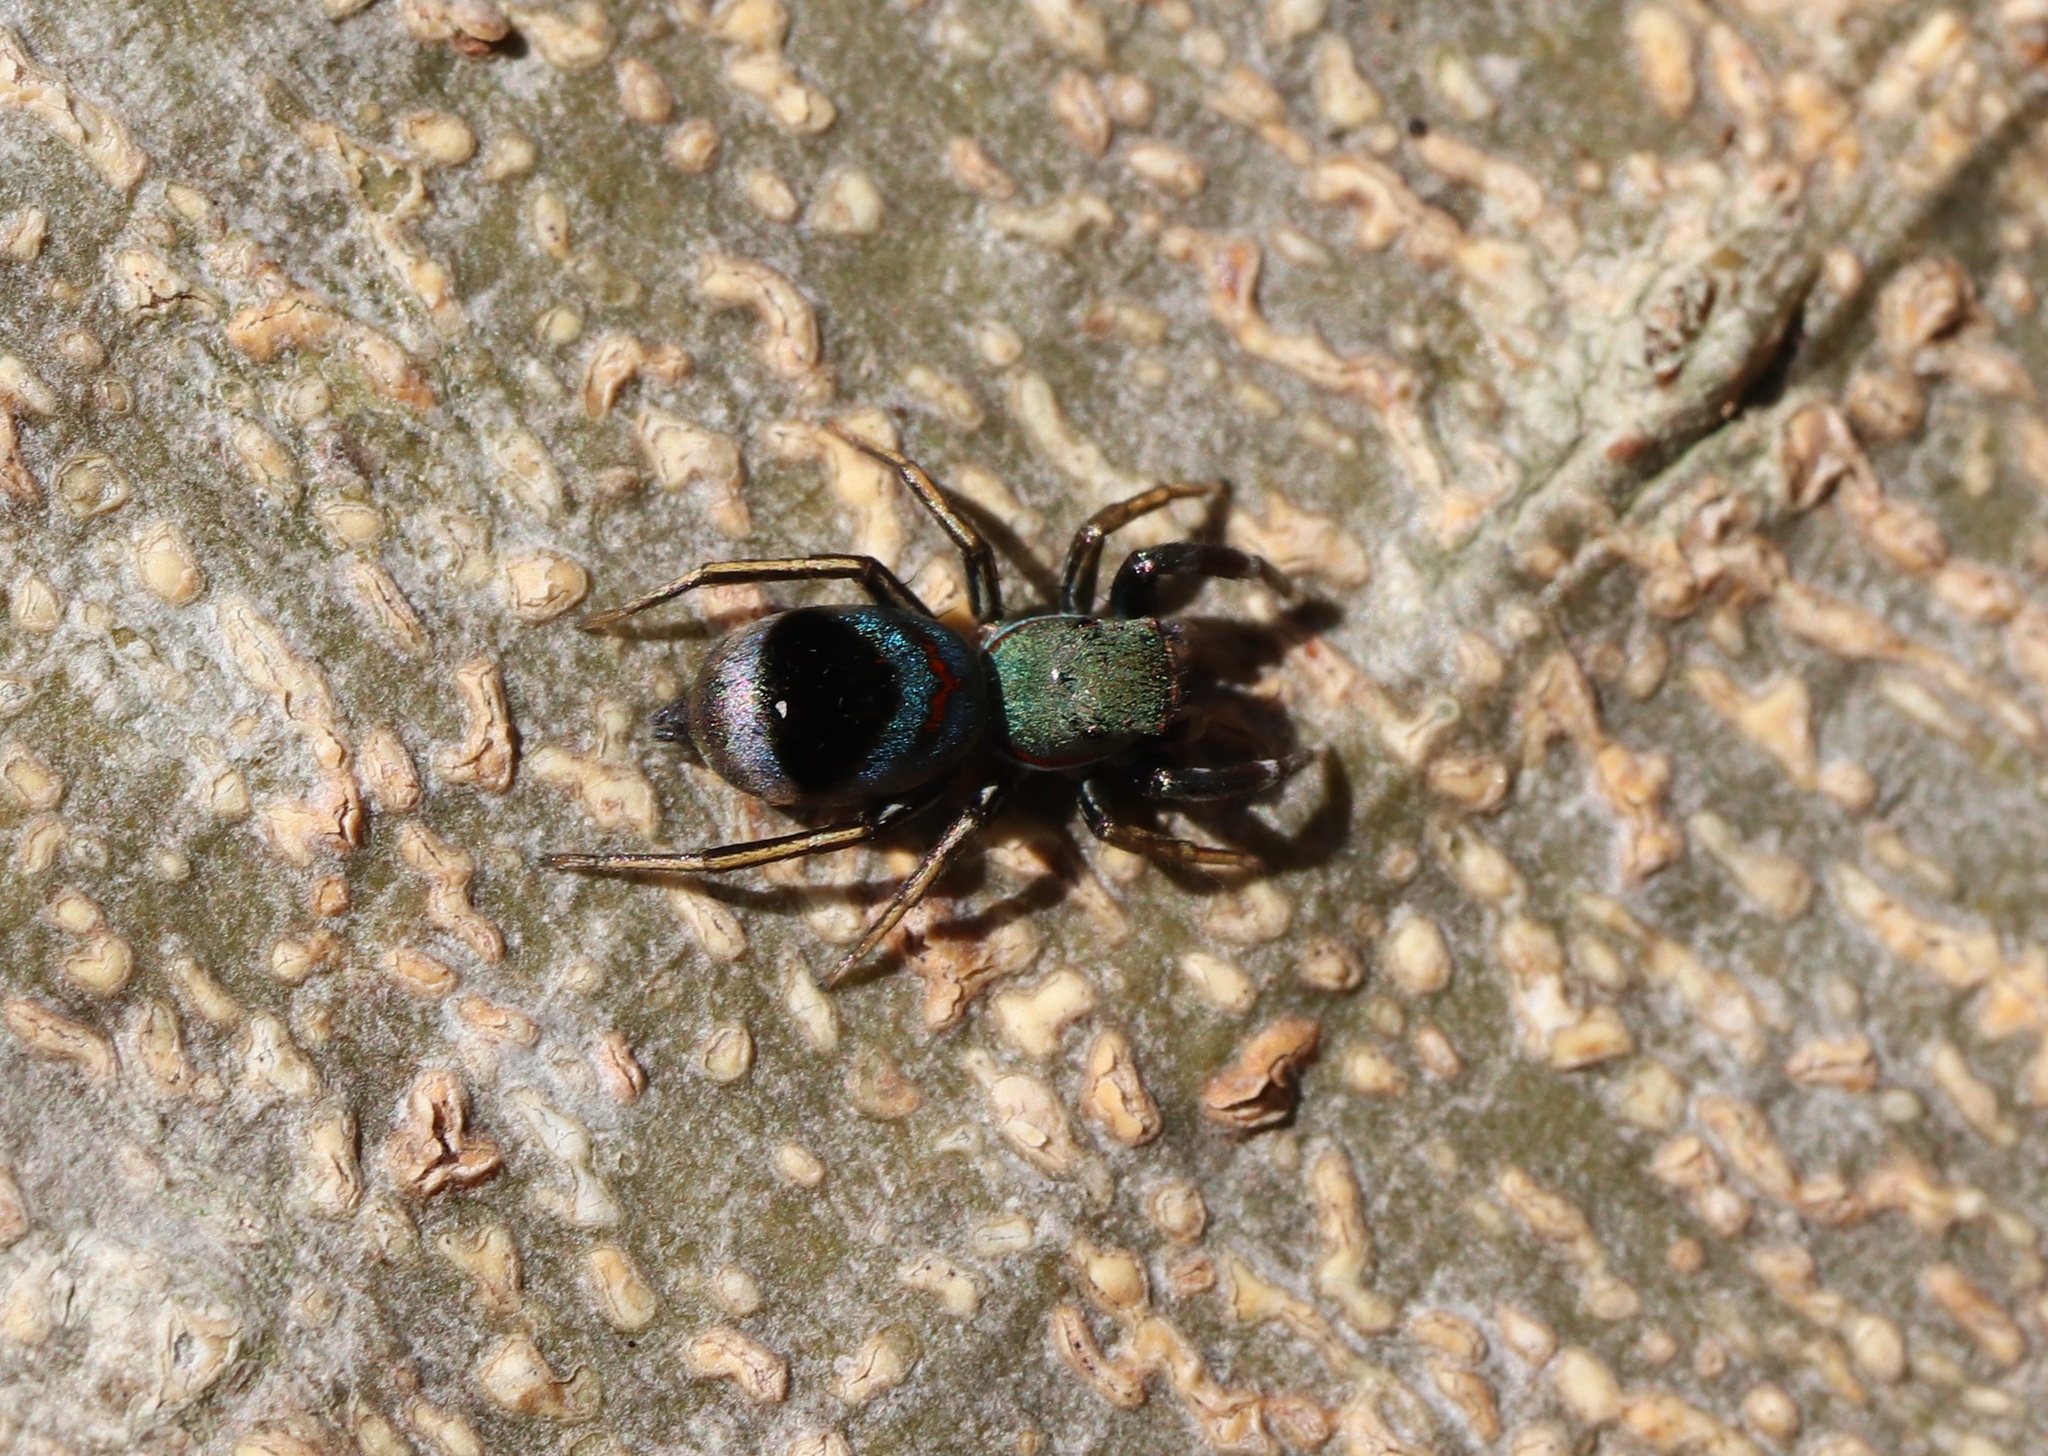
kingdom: Animalia
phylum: Arthropoda
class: Arachnida
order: Araneae
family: Salticidae
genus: Siler
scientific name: Siler cupreus
